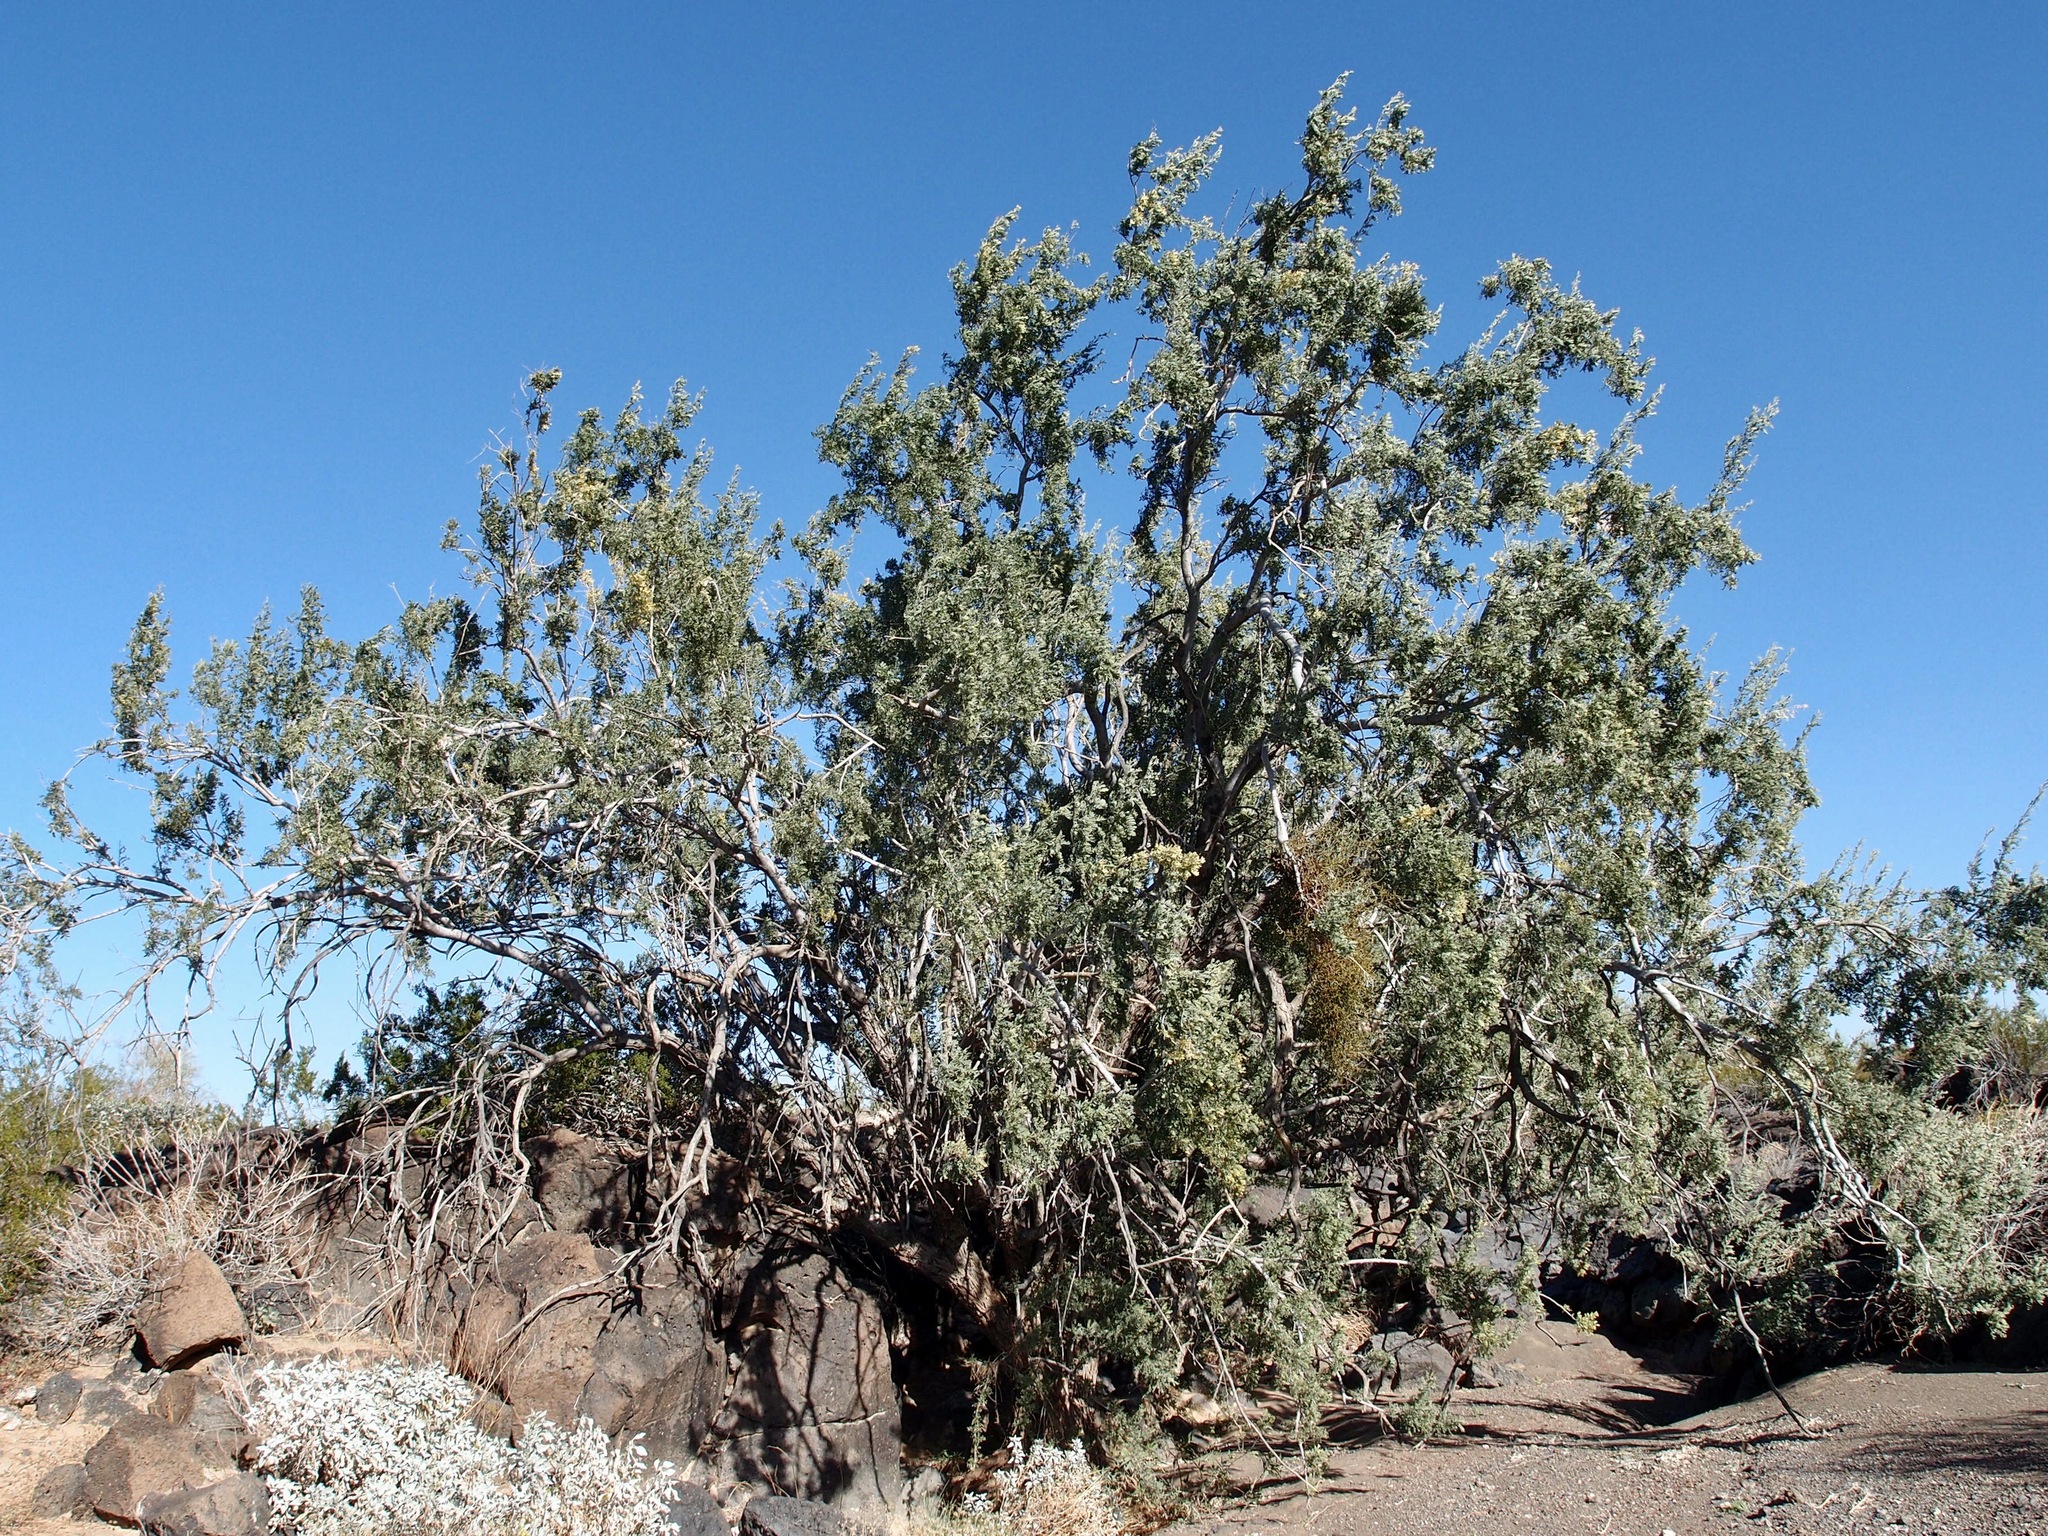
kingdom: Plantae
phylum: Tracheophyta
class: Magnoliopsida
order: Fabales
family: Fabaceae
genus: Olneya
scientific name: Olneya tesota
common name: Desert ironwood
